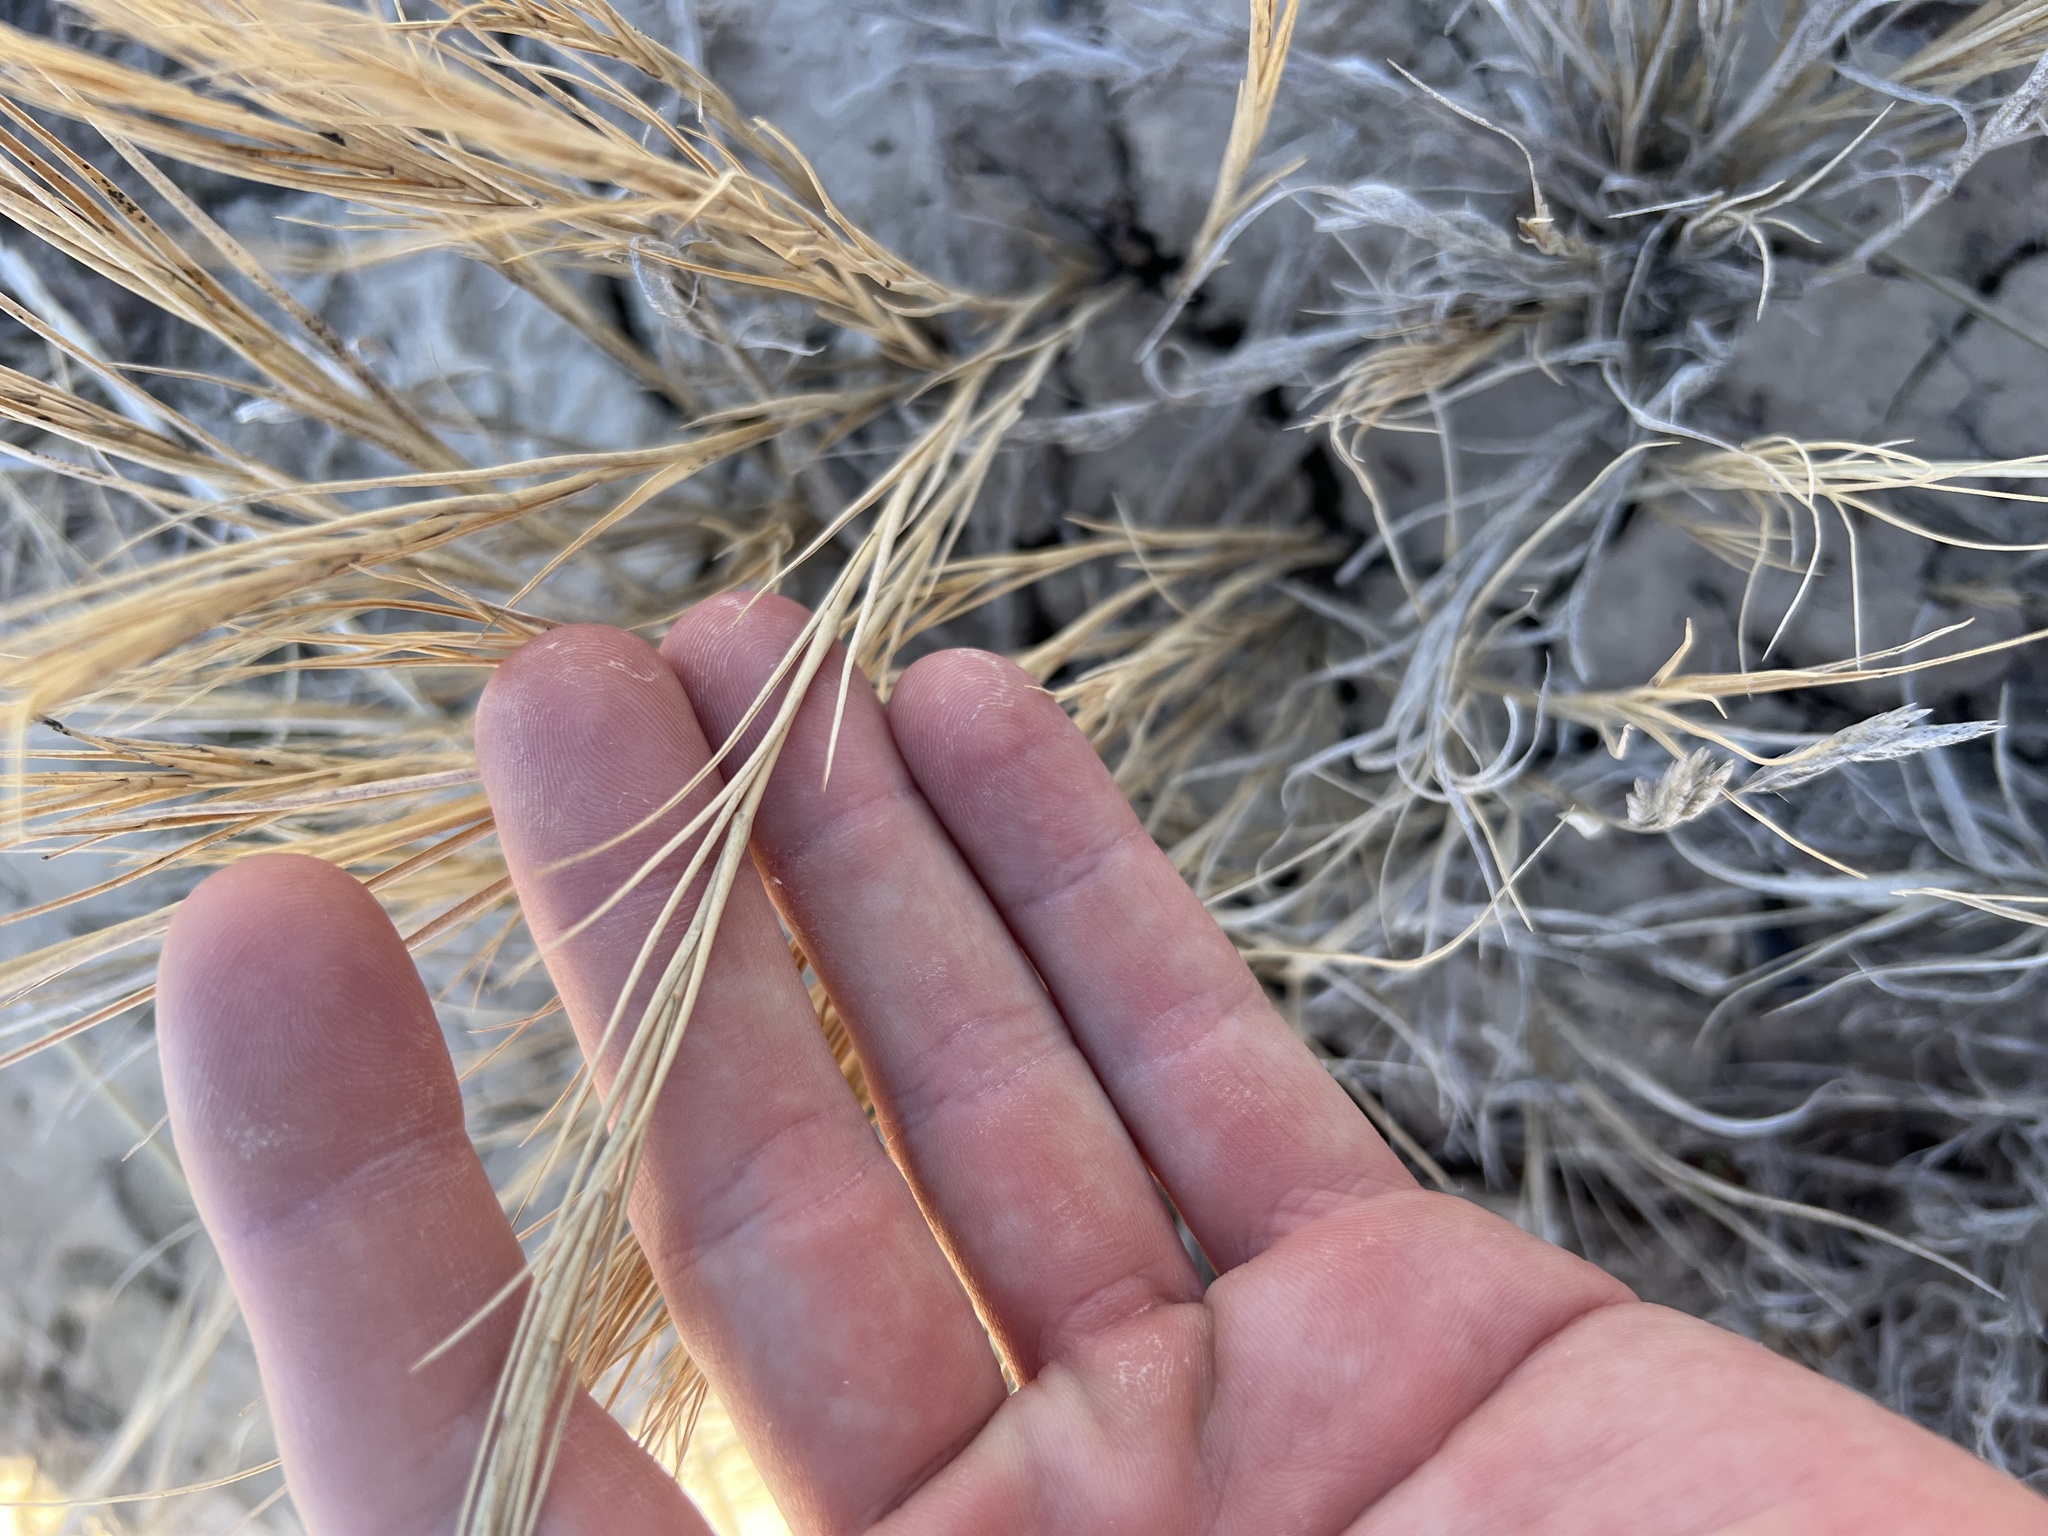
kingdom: Plantae
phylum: Tracheophyta
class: Liliopsida
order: Poales
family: Poaceae
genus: Distichlis
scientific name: Distichlis spicata
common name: Saltgrass
